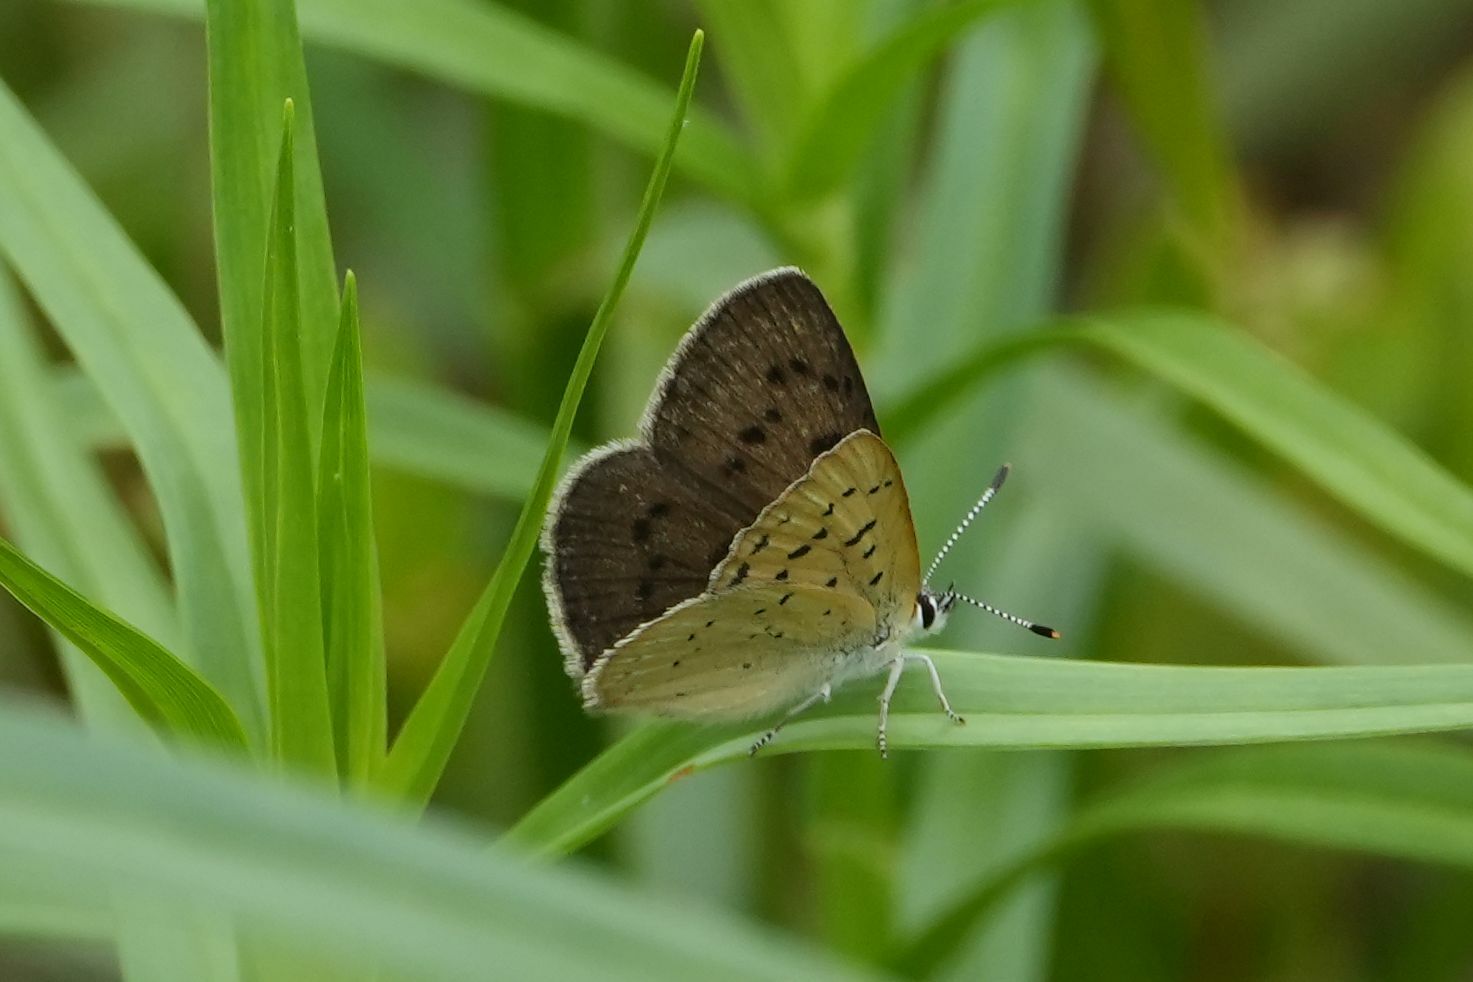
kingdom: Animalia
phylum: Arthropoda
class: Insecta
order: Lepidoptera
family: Lycaenidae
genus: Tharsalea
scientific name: Tharsalea epixanthe
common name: Bog copper
